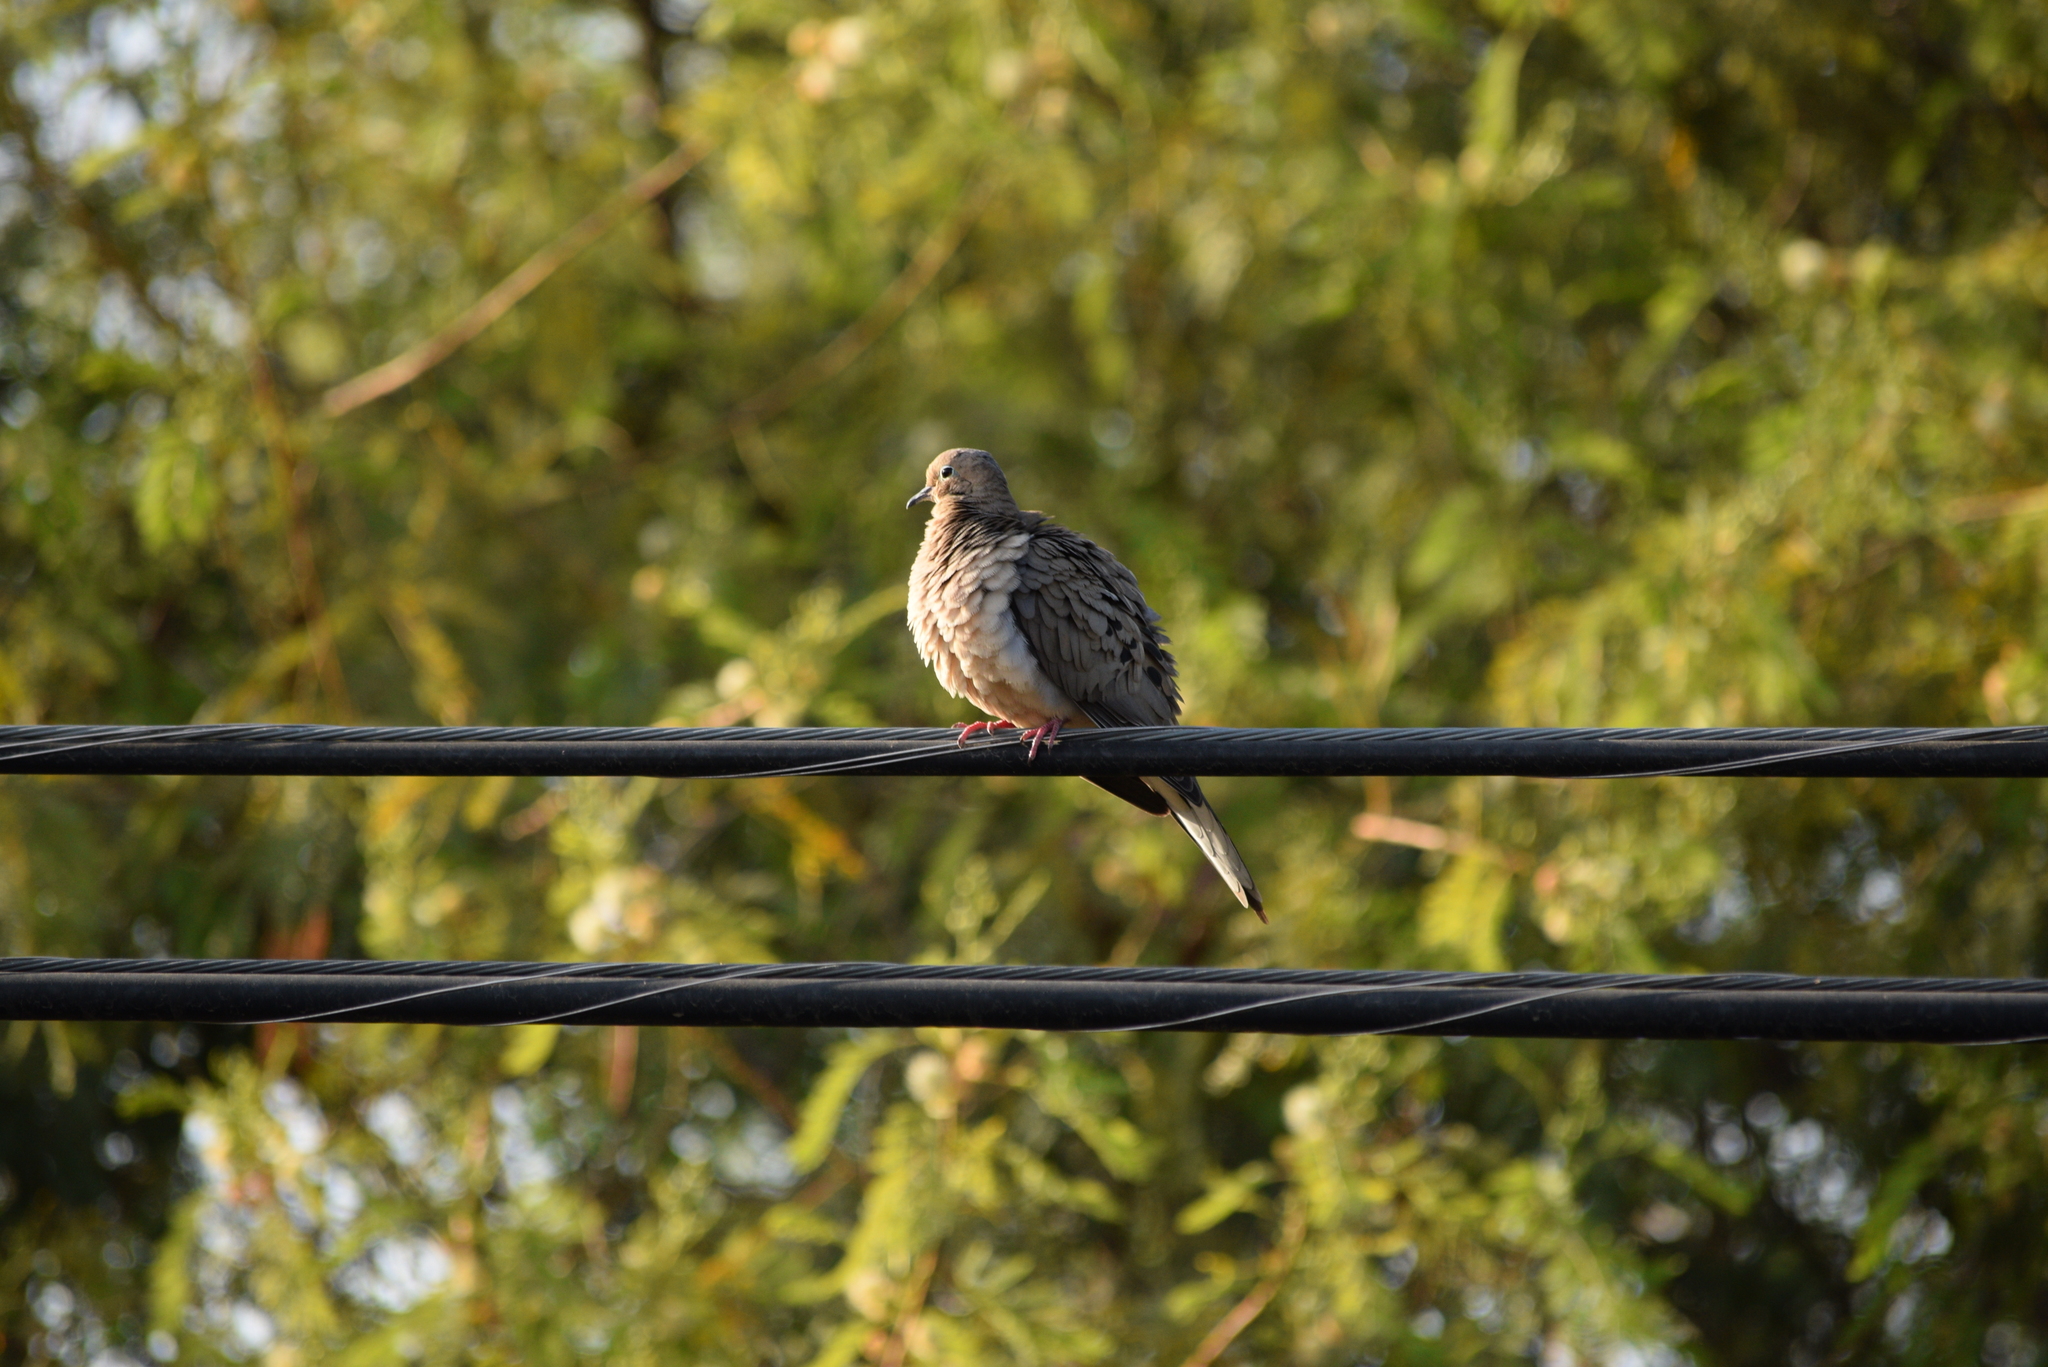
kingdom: Animalia
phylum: Chordata
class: Aves
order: Columbiformes
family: Columbidae
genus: Zenaida
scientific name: Zenaida macroura
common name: Mourning dove
